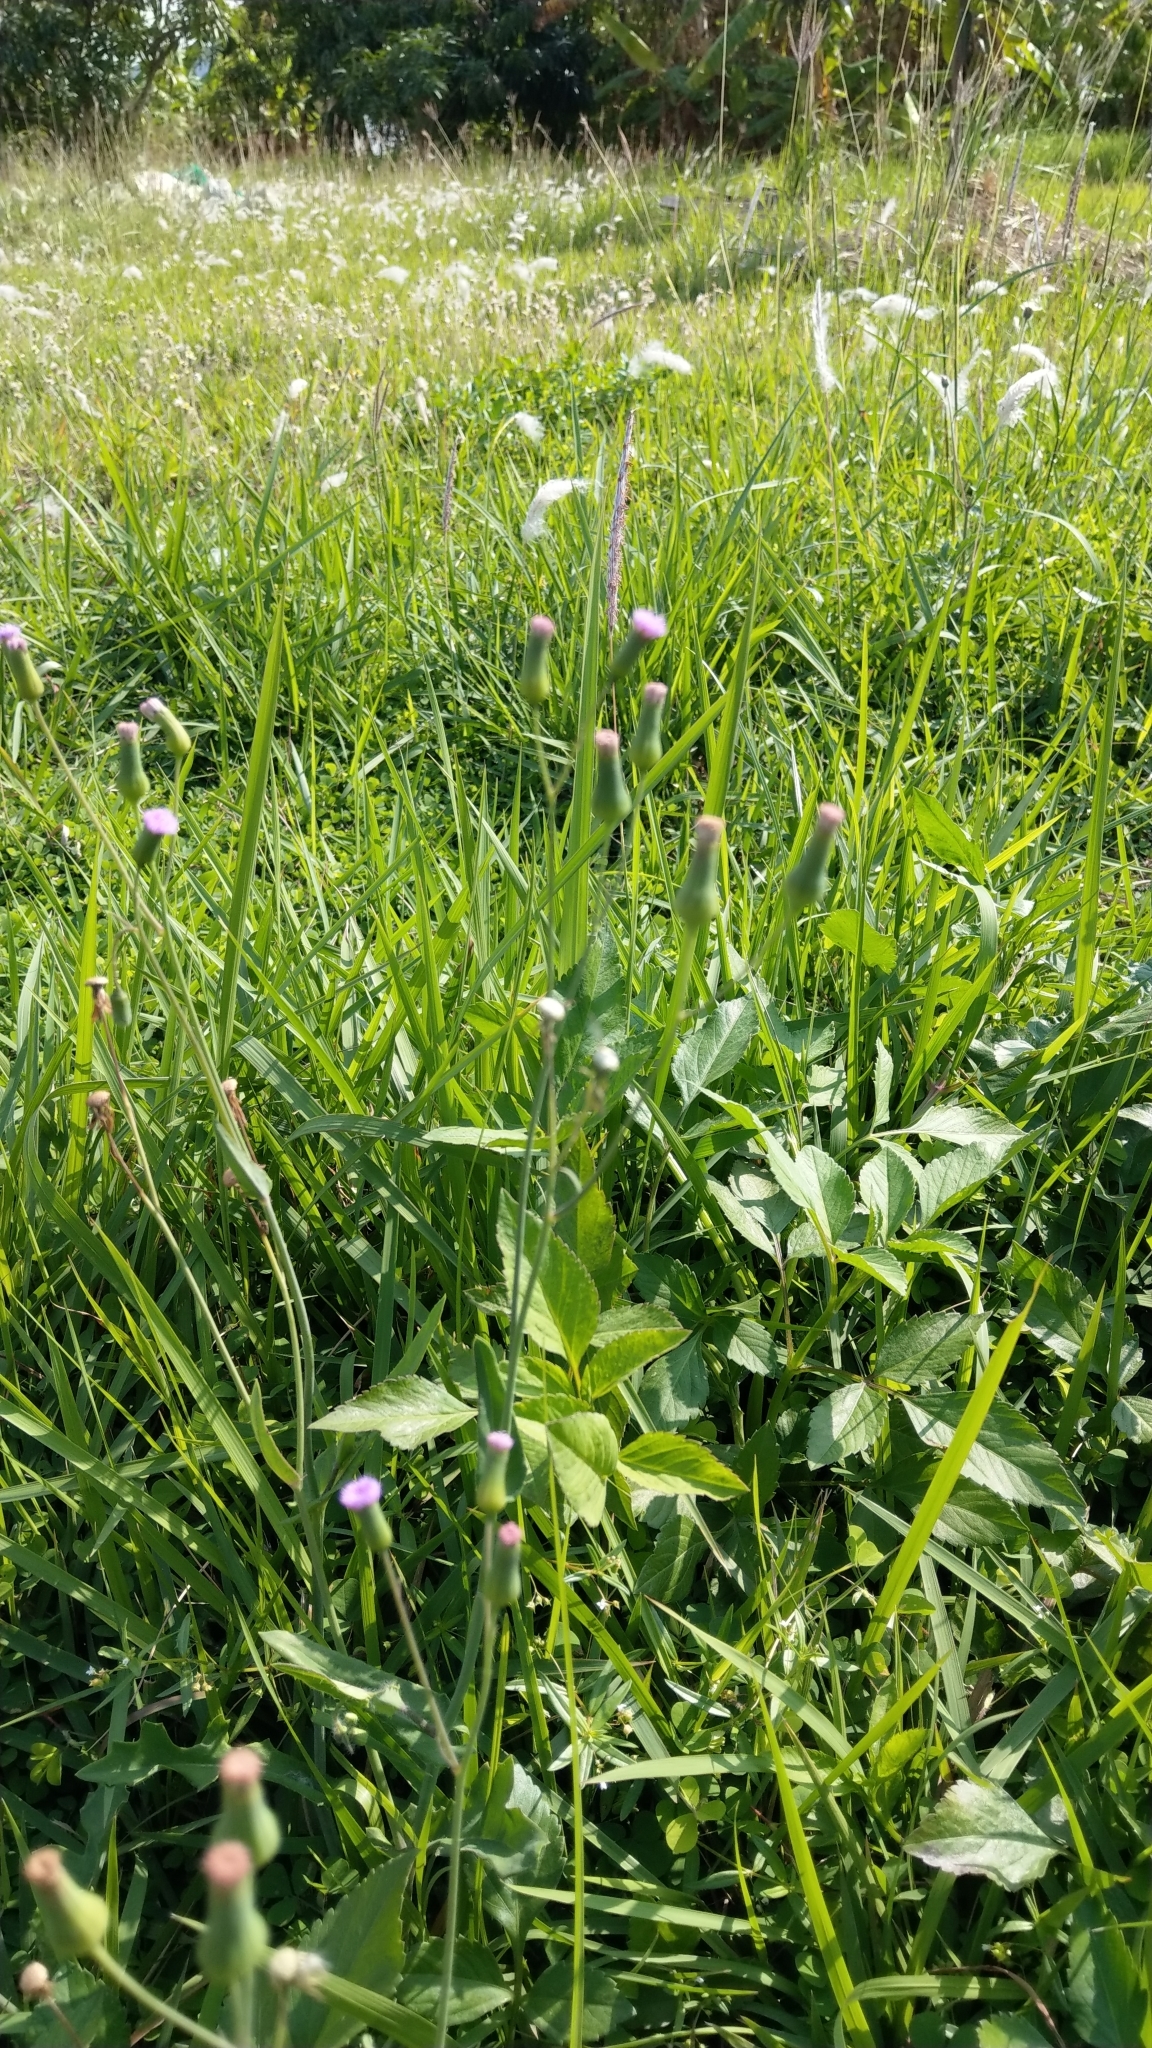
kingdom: Plantae
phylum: Tracheophyta
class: Magnoliopsida
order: Asterales
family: Asteraceae
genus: Emilia
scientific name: Emilia javanica
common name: Tassel-flower
